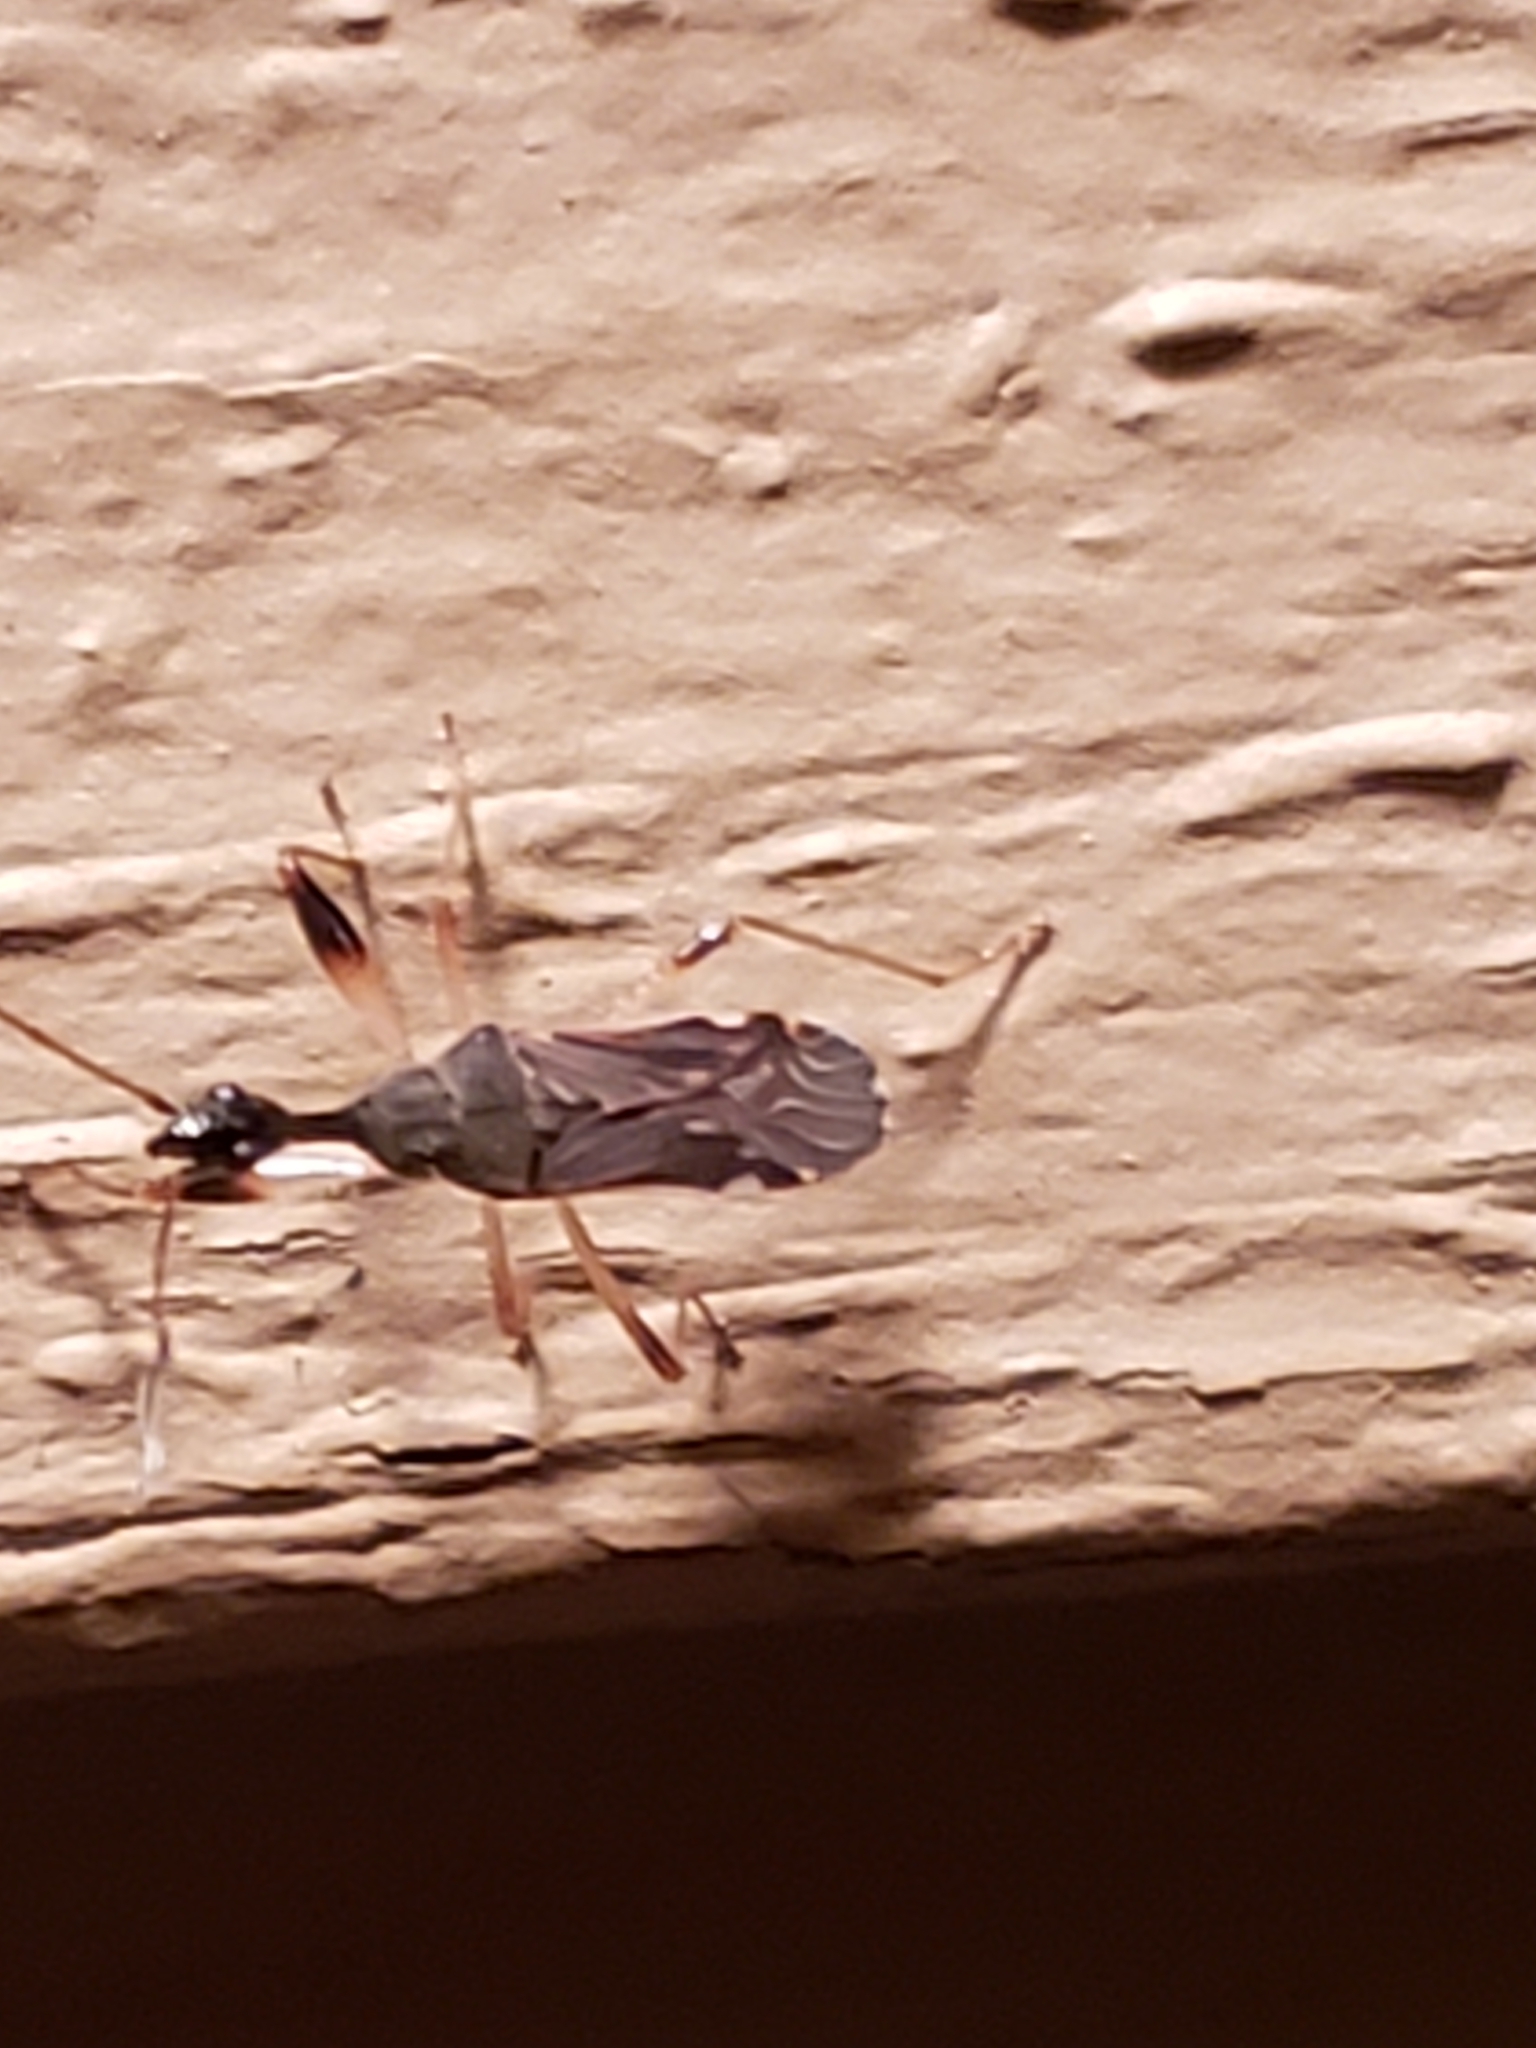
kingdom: Animalia
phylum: Arthropoda
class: Insecta
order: Hemiptera
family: Rhyparochromidae
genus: Myodocha
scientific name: Myodocha serripes
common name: Long-necked seed bug
